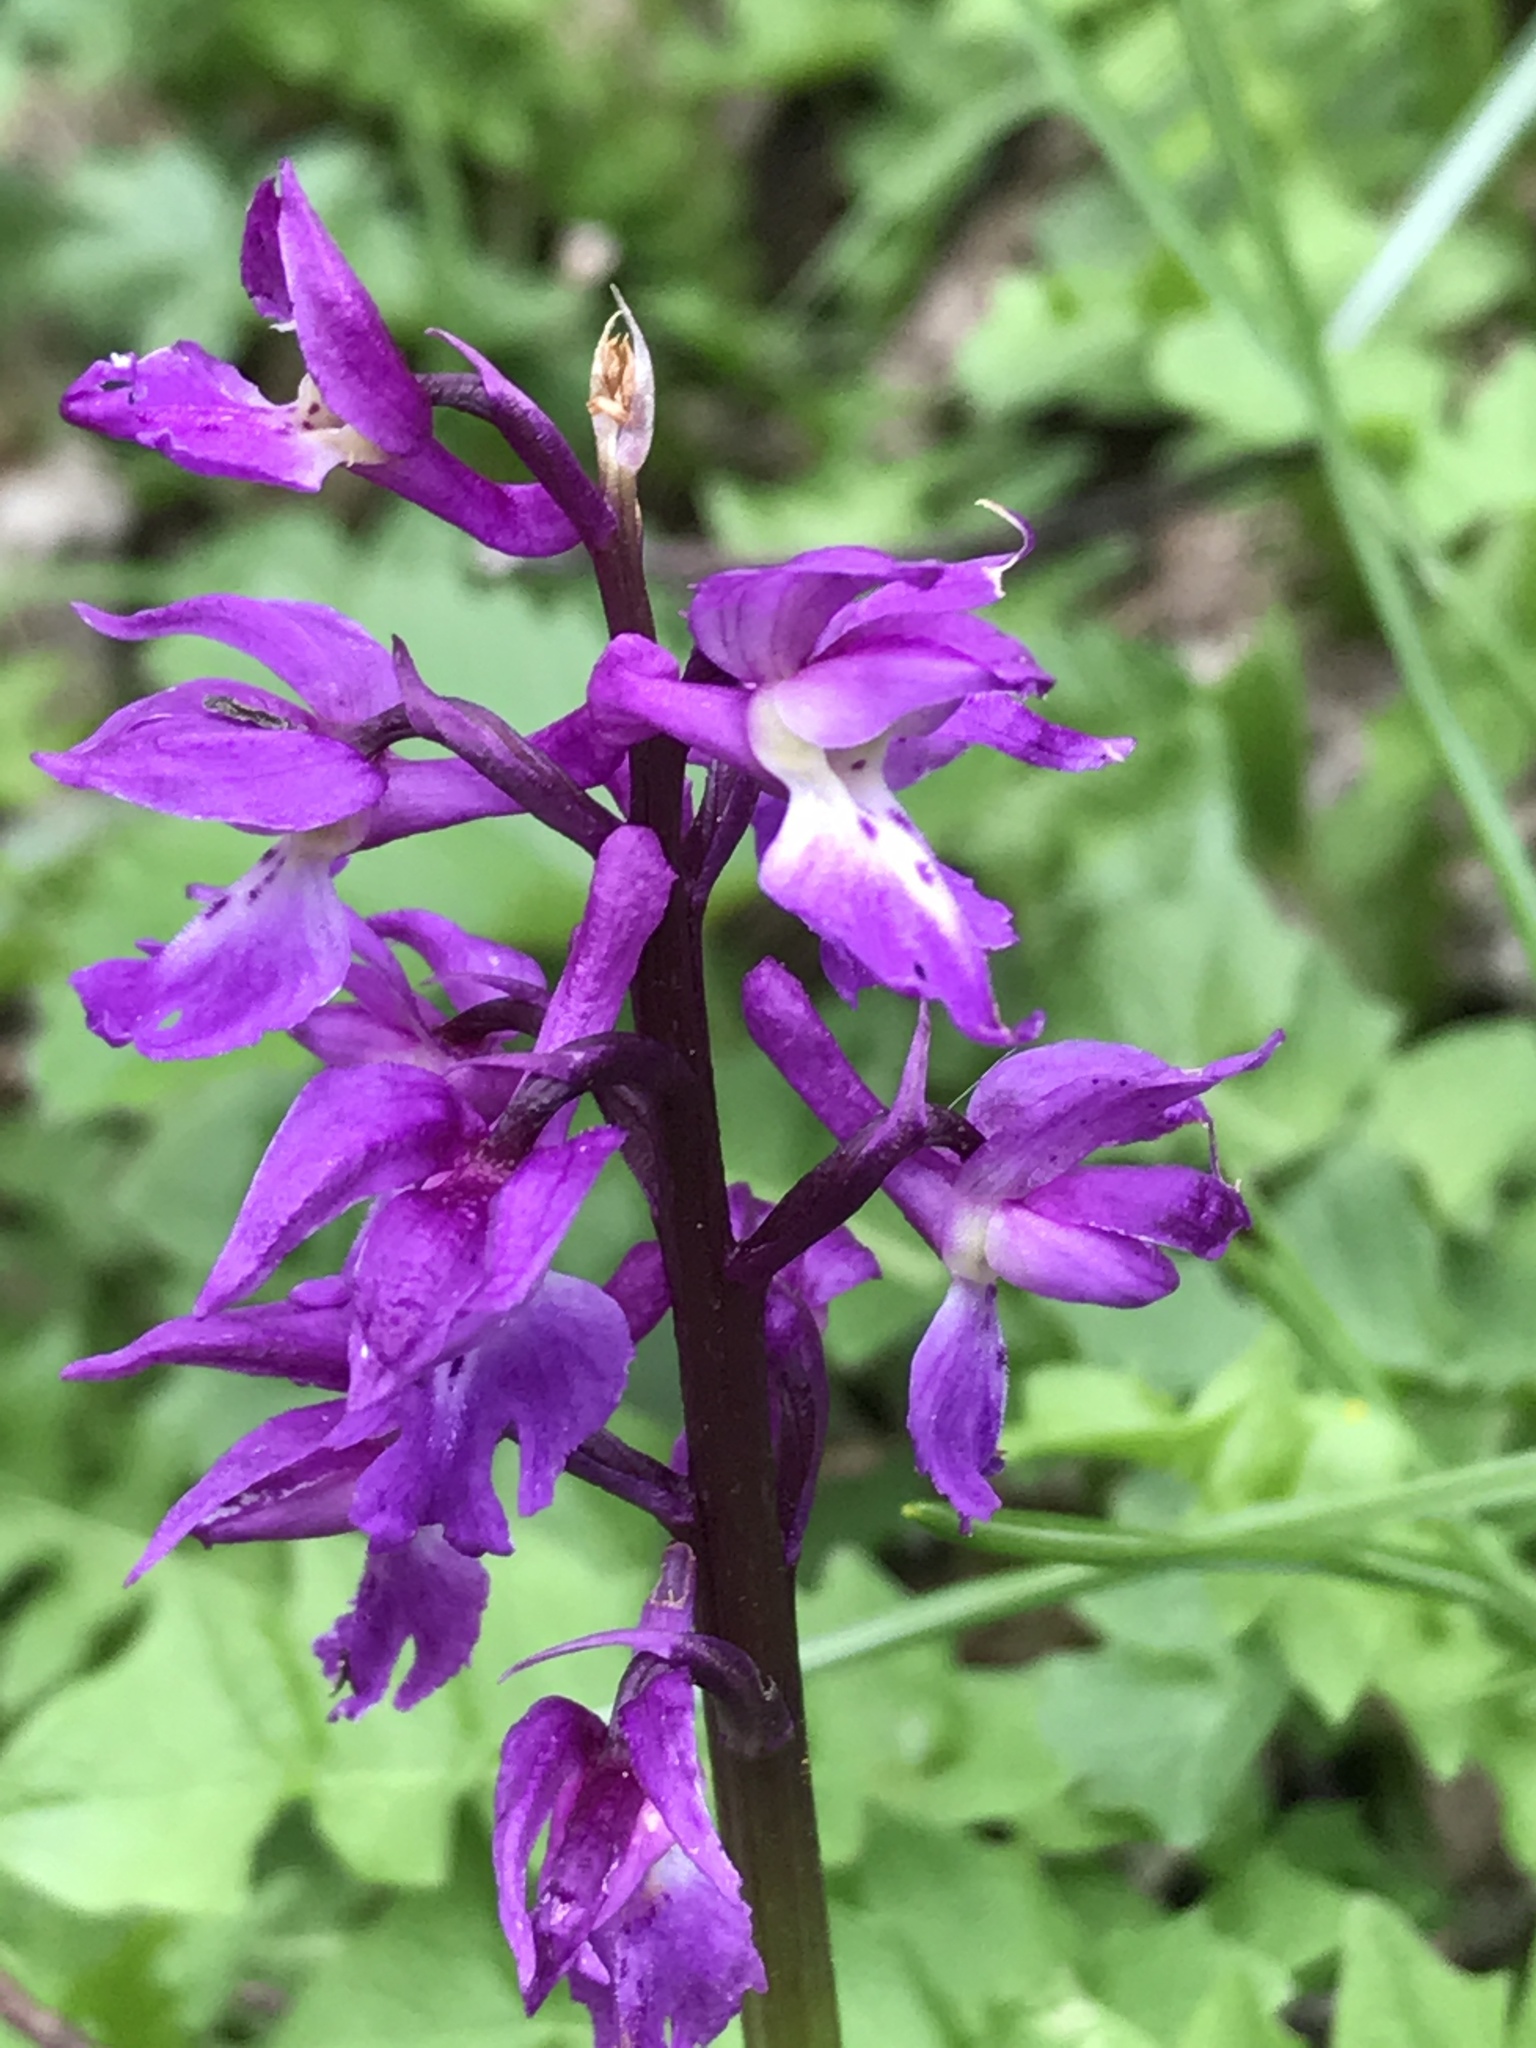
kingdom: Plantae
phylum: Tracheophyta
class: Liliopsida
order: Asparagales
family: Orchidaceae
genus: Orchis
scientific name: Orchis mascula
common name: Early-purple orchid
